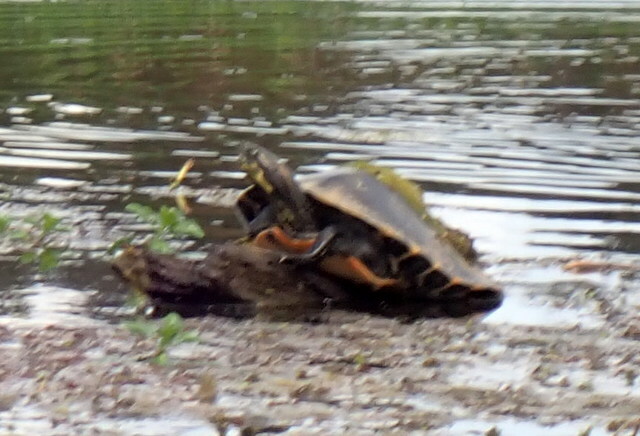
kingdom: Animalia
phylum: Chordata
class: Testudines
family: Emydidae
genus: Pseudemys
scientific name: Pseudemys concinna
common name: Eastern river cooter
